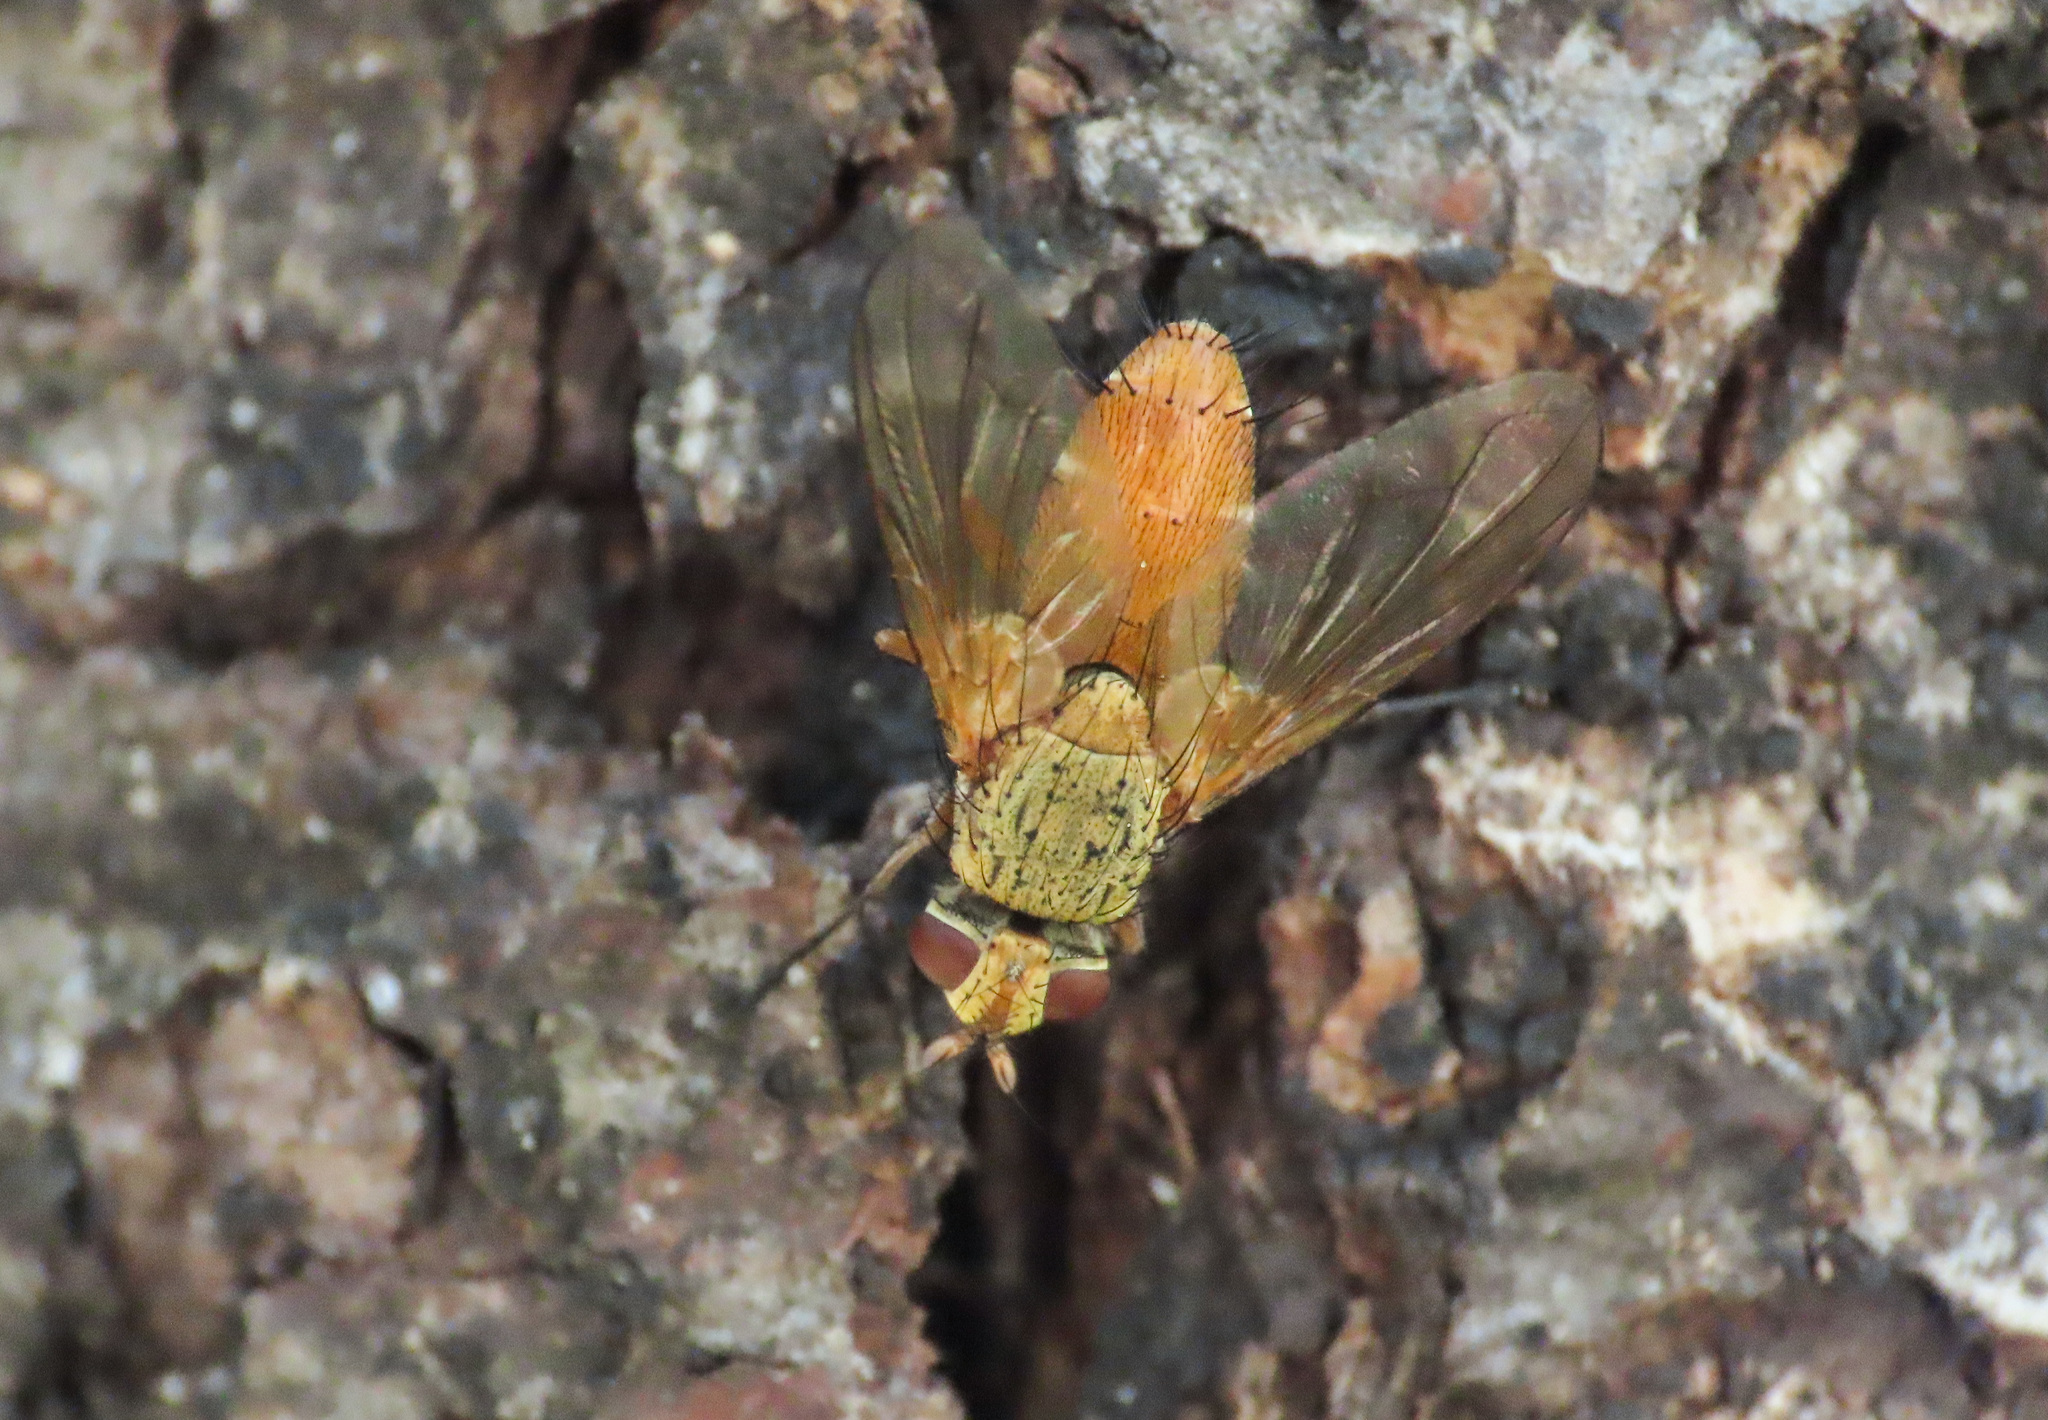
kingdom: Animalia
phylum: Arthropoda
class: Insecta
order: Diptera
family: Tachinidae
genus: Leskia
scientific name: Leskia aurea
